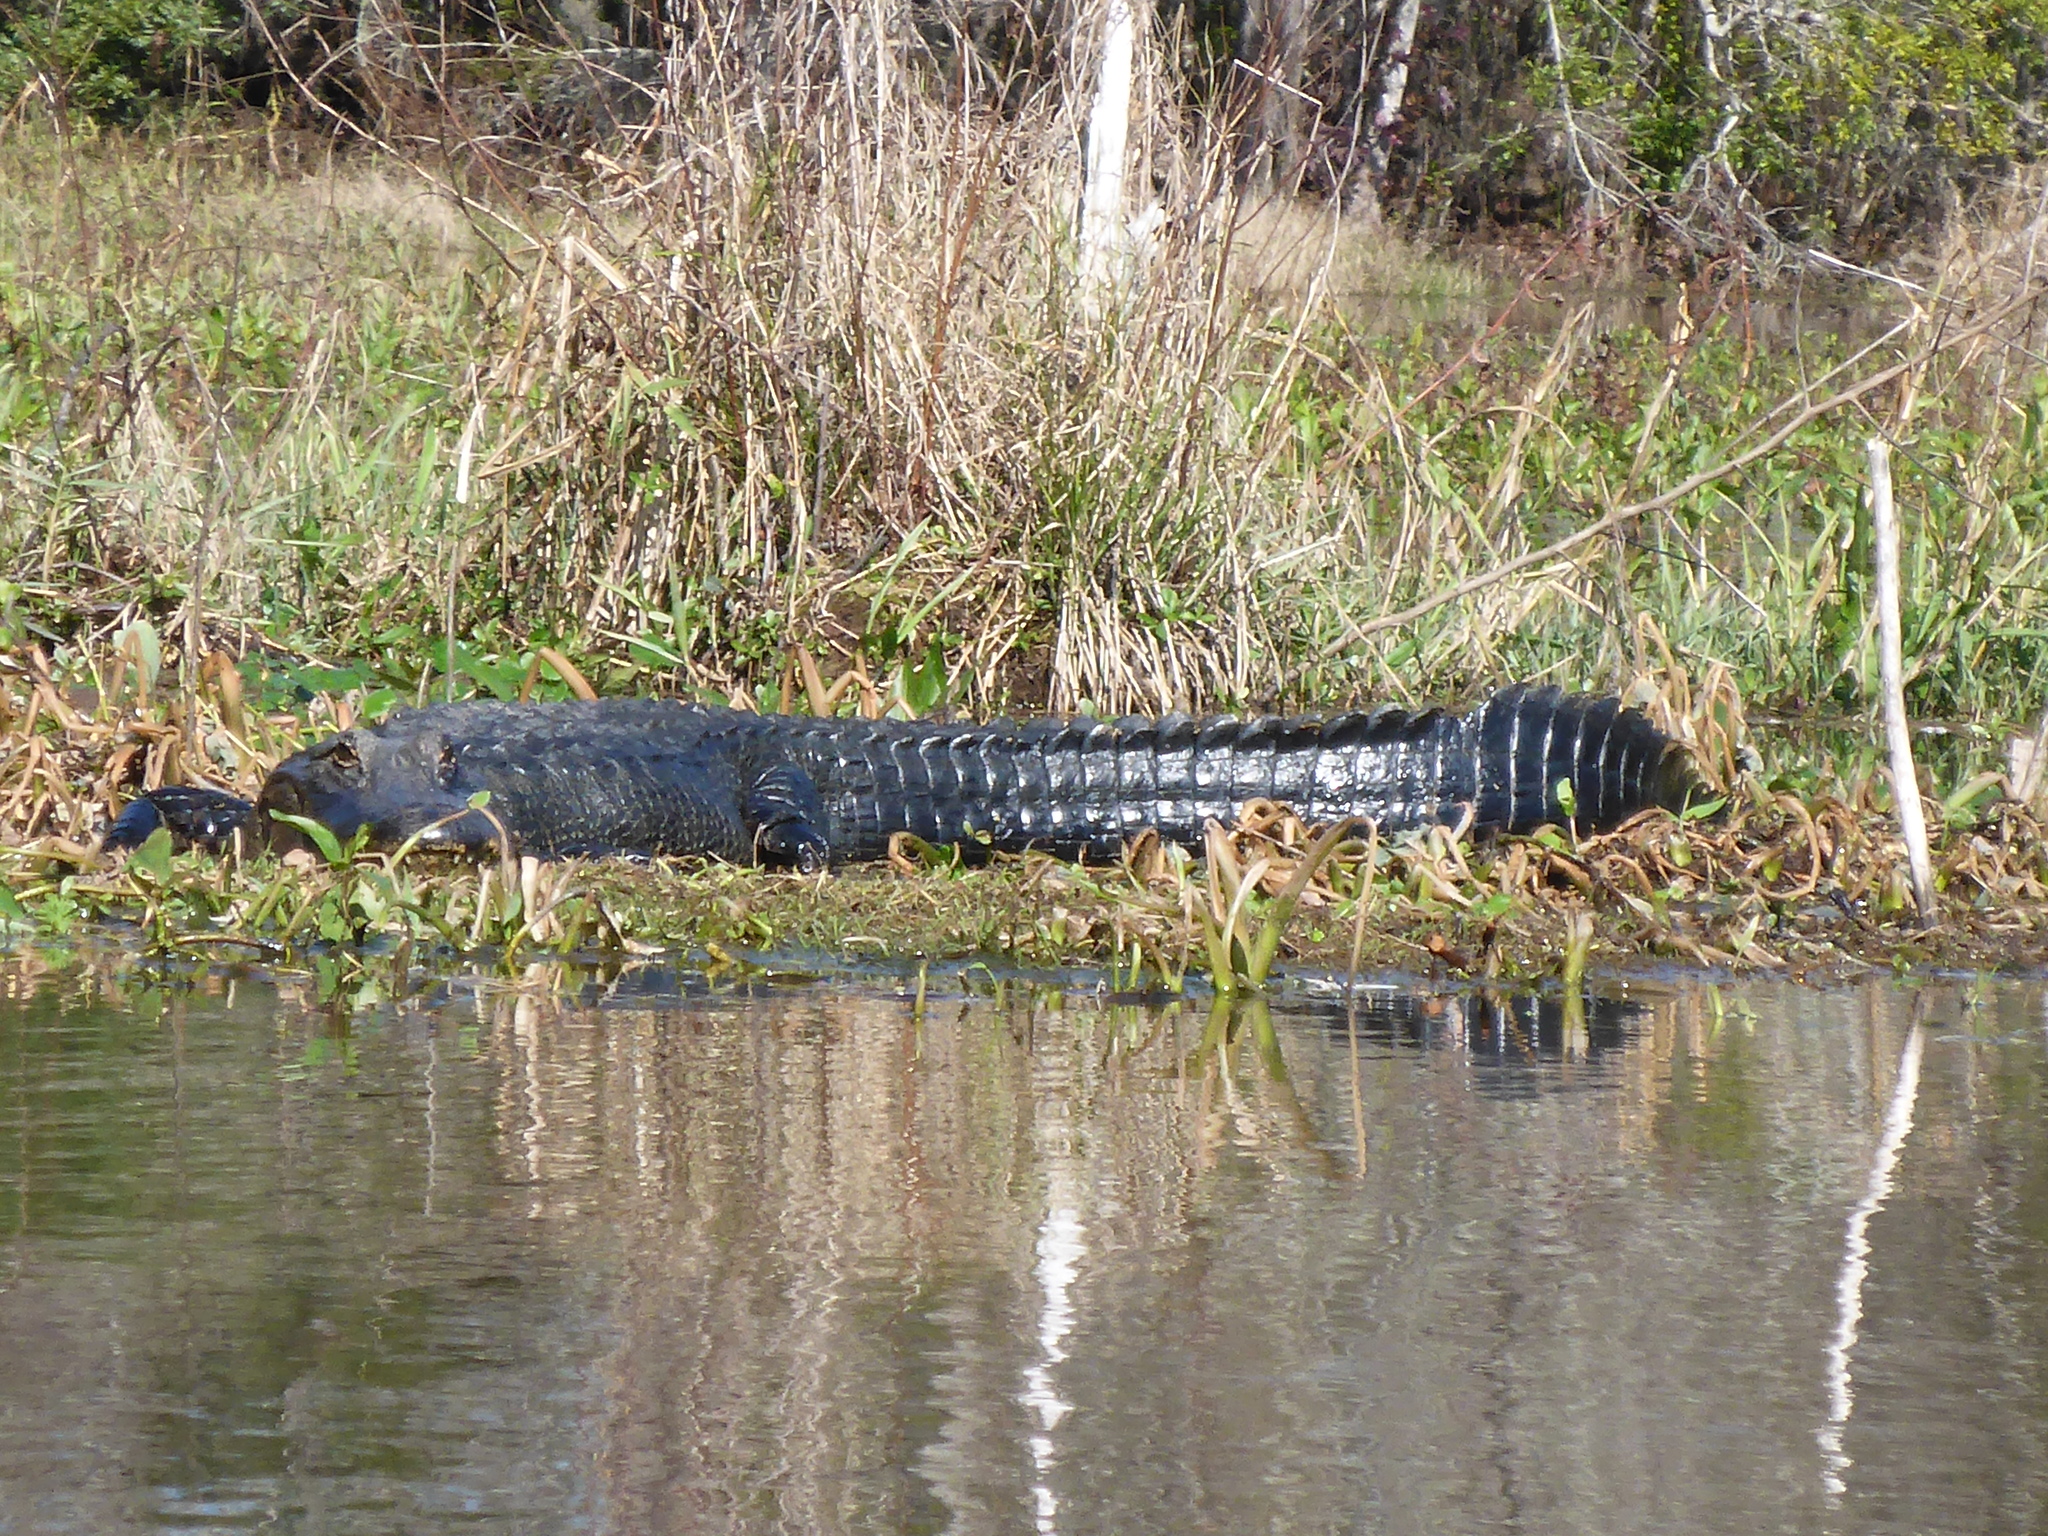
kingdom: Animalia
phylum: Chordata
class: Crocodylia
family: Alligatoridae
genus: Alligator
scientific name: Alligator mississippiensis
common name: American alligator
